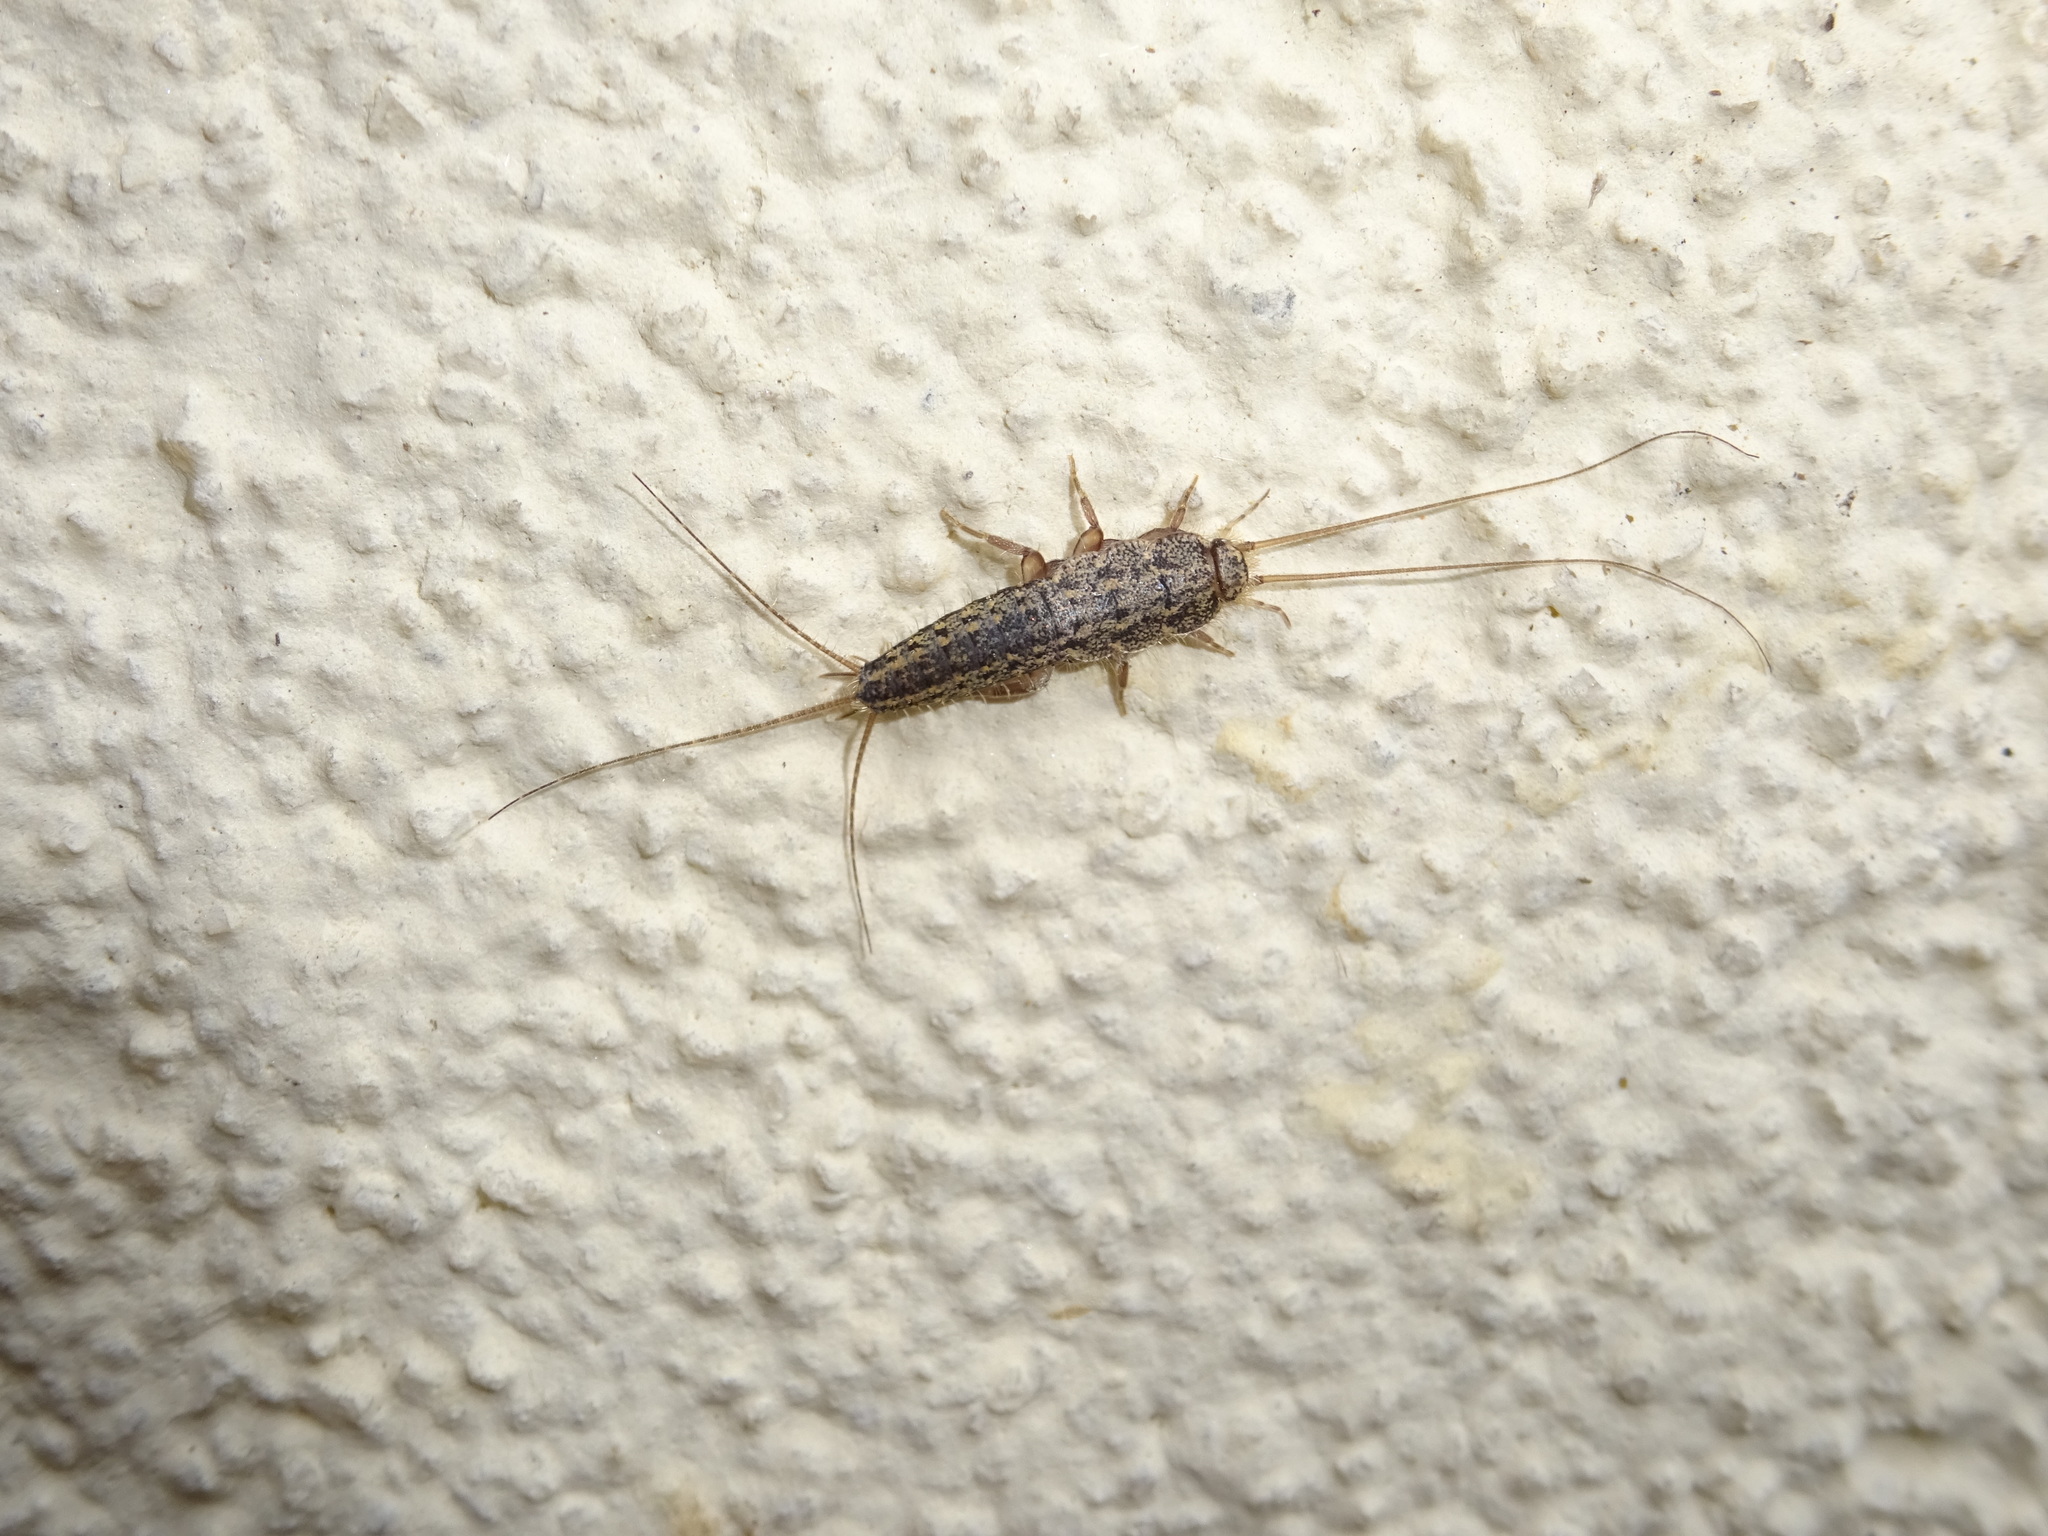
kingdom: Animalia
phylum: Arthropoda
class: Insecta
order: Zygentoma
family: Lepismatidae
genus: Ctenolepisma
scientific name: Ctenolepisma lineata
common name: Four-lined silverfish
